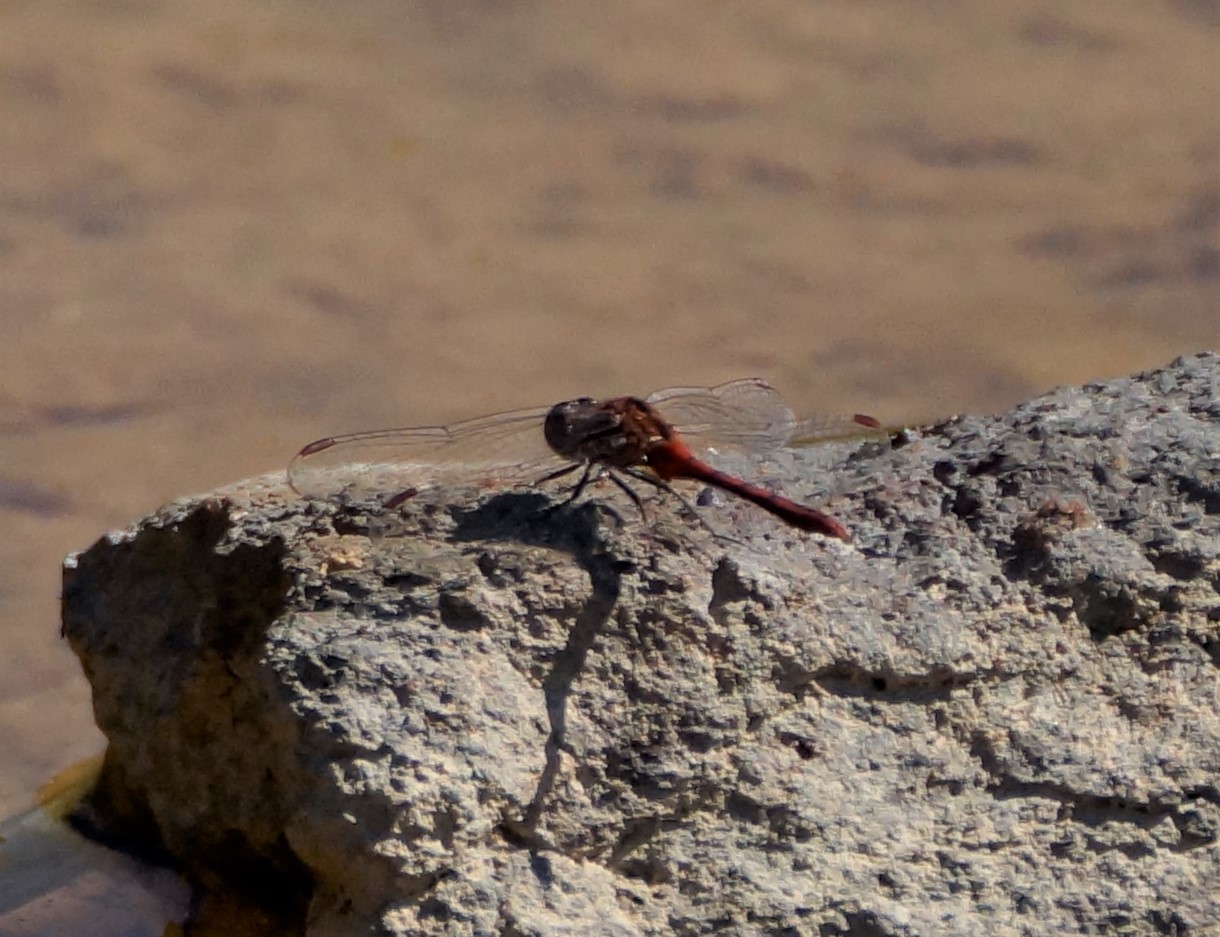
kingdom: Animalia
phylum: Arthropoda
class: Insecta
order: Odonata
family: Libellulidae
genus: Diplacodes
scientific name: Diplacodes bipunctata
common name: Red percher dragonfly
